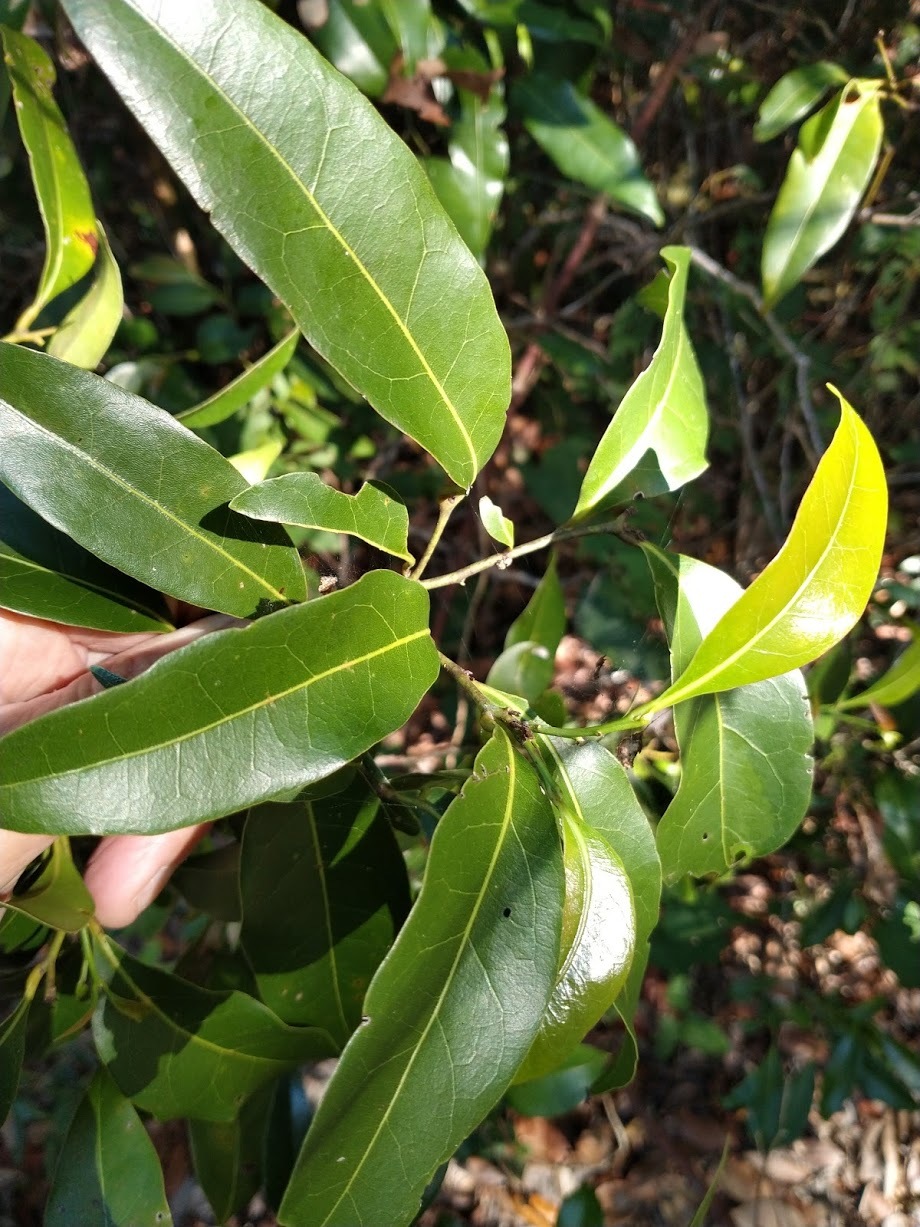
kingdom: Plantae
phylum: Tracheophyta
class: Magnoliopsida
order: Laurales
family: Lauraceae
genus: Cryptocarya
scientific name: Cryptocarya sclerophylla
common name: Totempole
